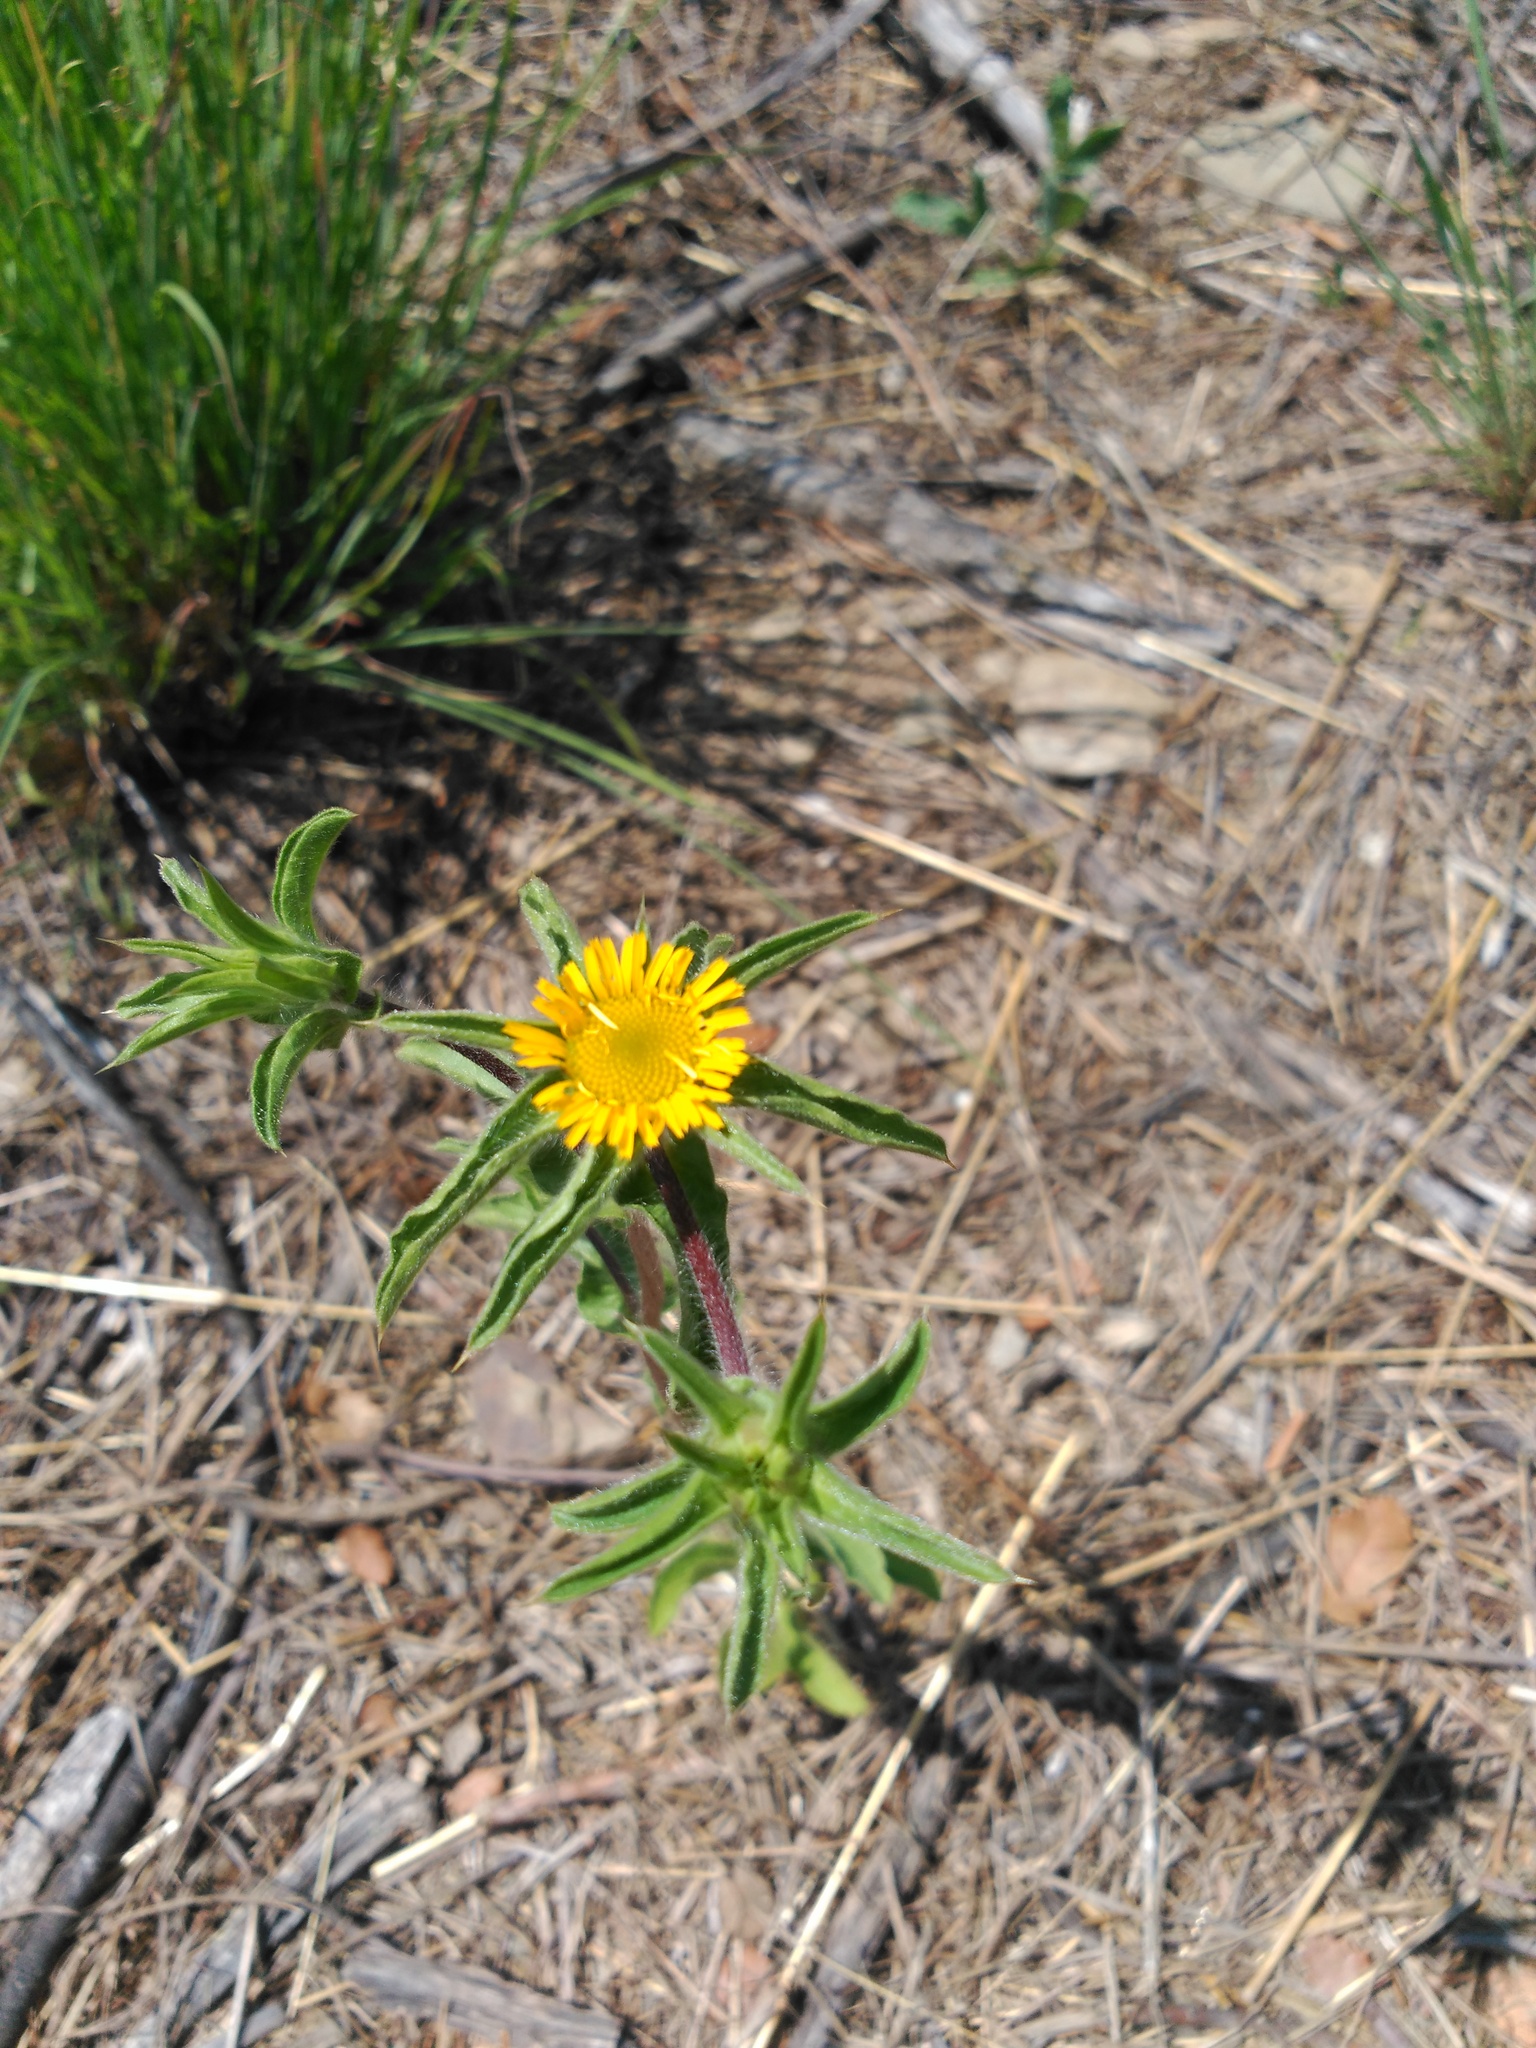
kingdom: Plantae
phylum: Tracheophyta
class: Magnoliopsida
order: Asterales
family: Asteraceae
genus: Pallenis
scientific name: Pallenis spinosa
